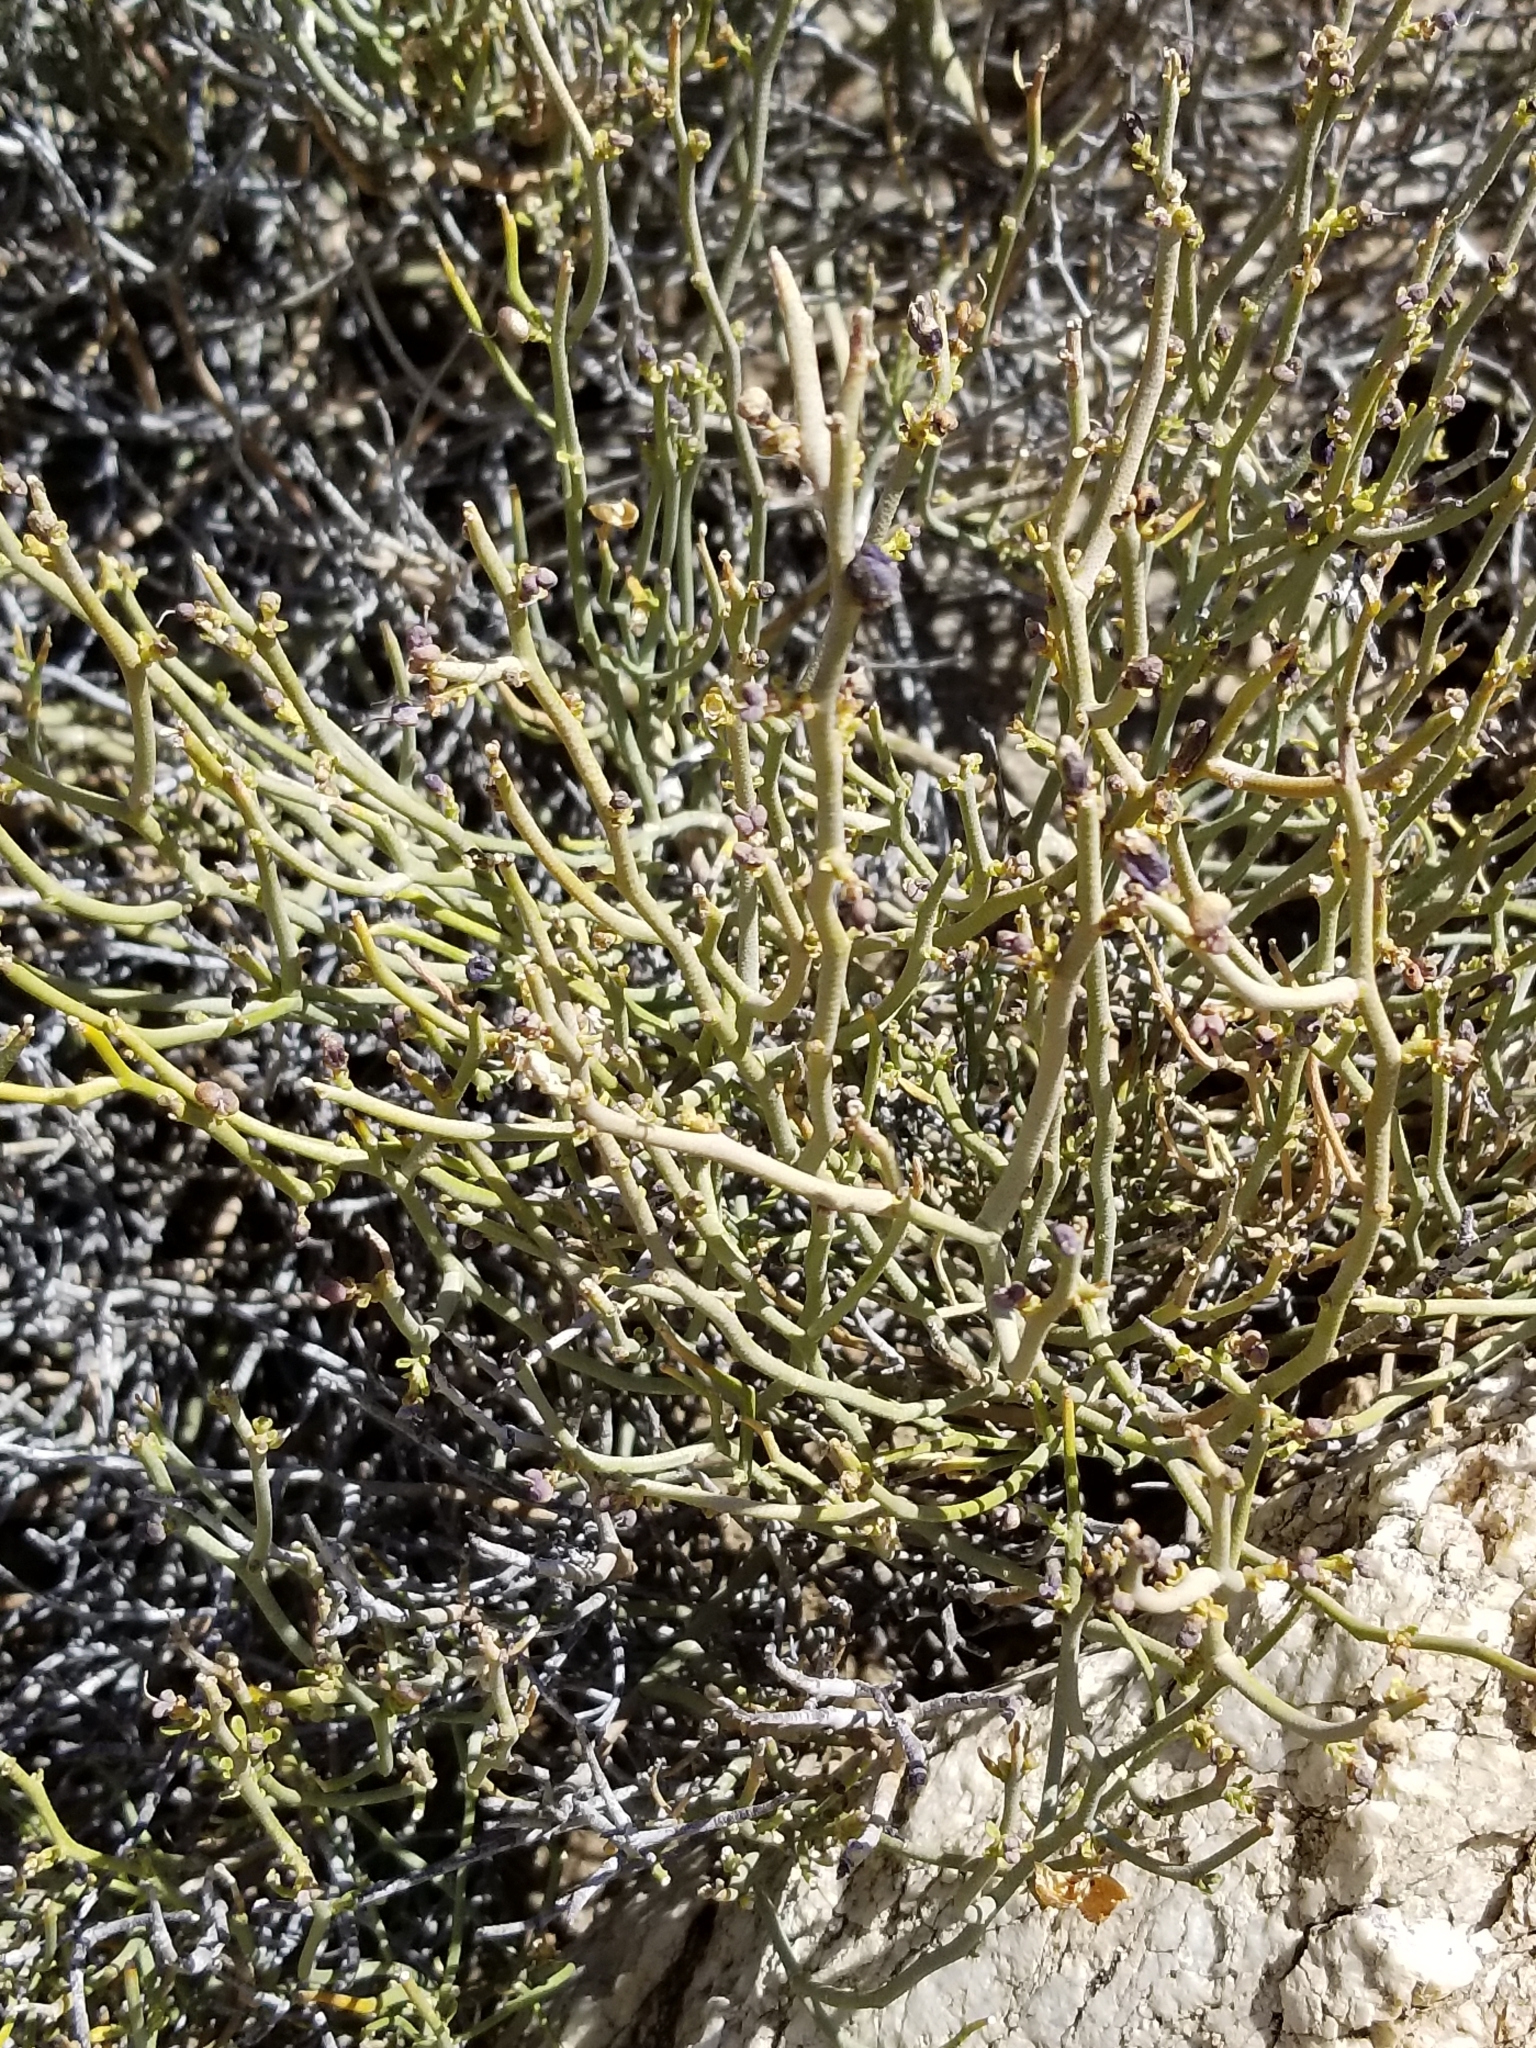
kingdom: Plantae
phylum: Tracheophyta
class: Magnoliopsida
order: Sapindales
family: Rutaceae
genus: Thamnosma
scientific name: Thamnosma montana
